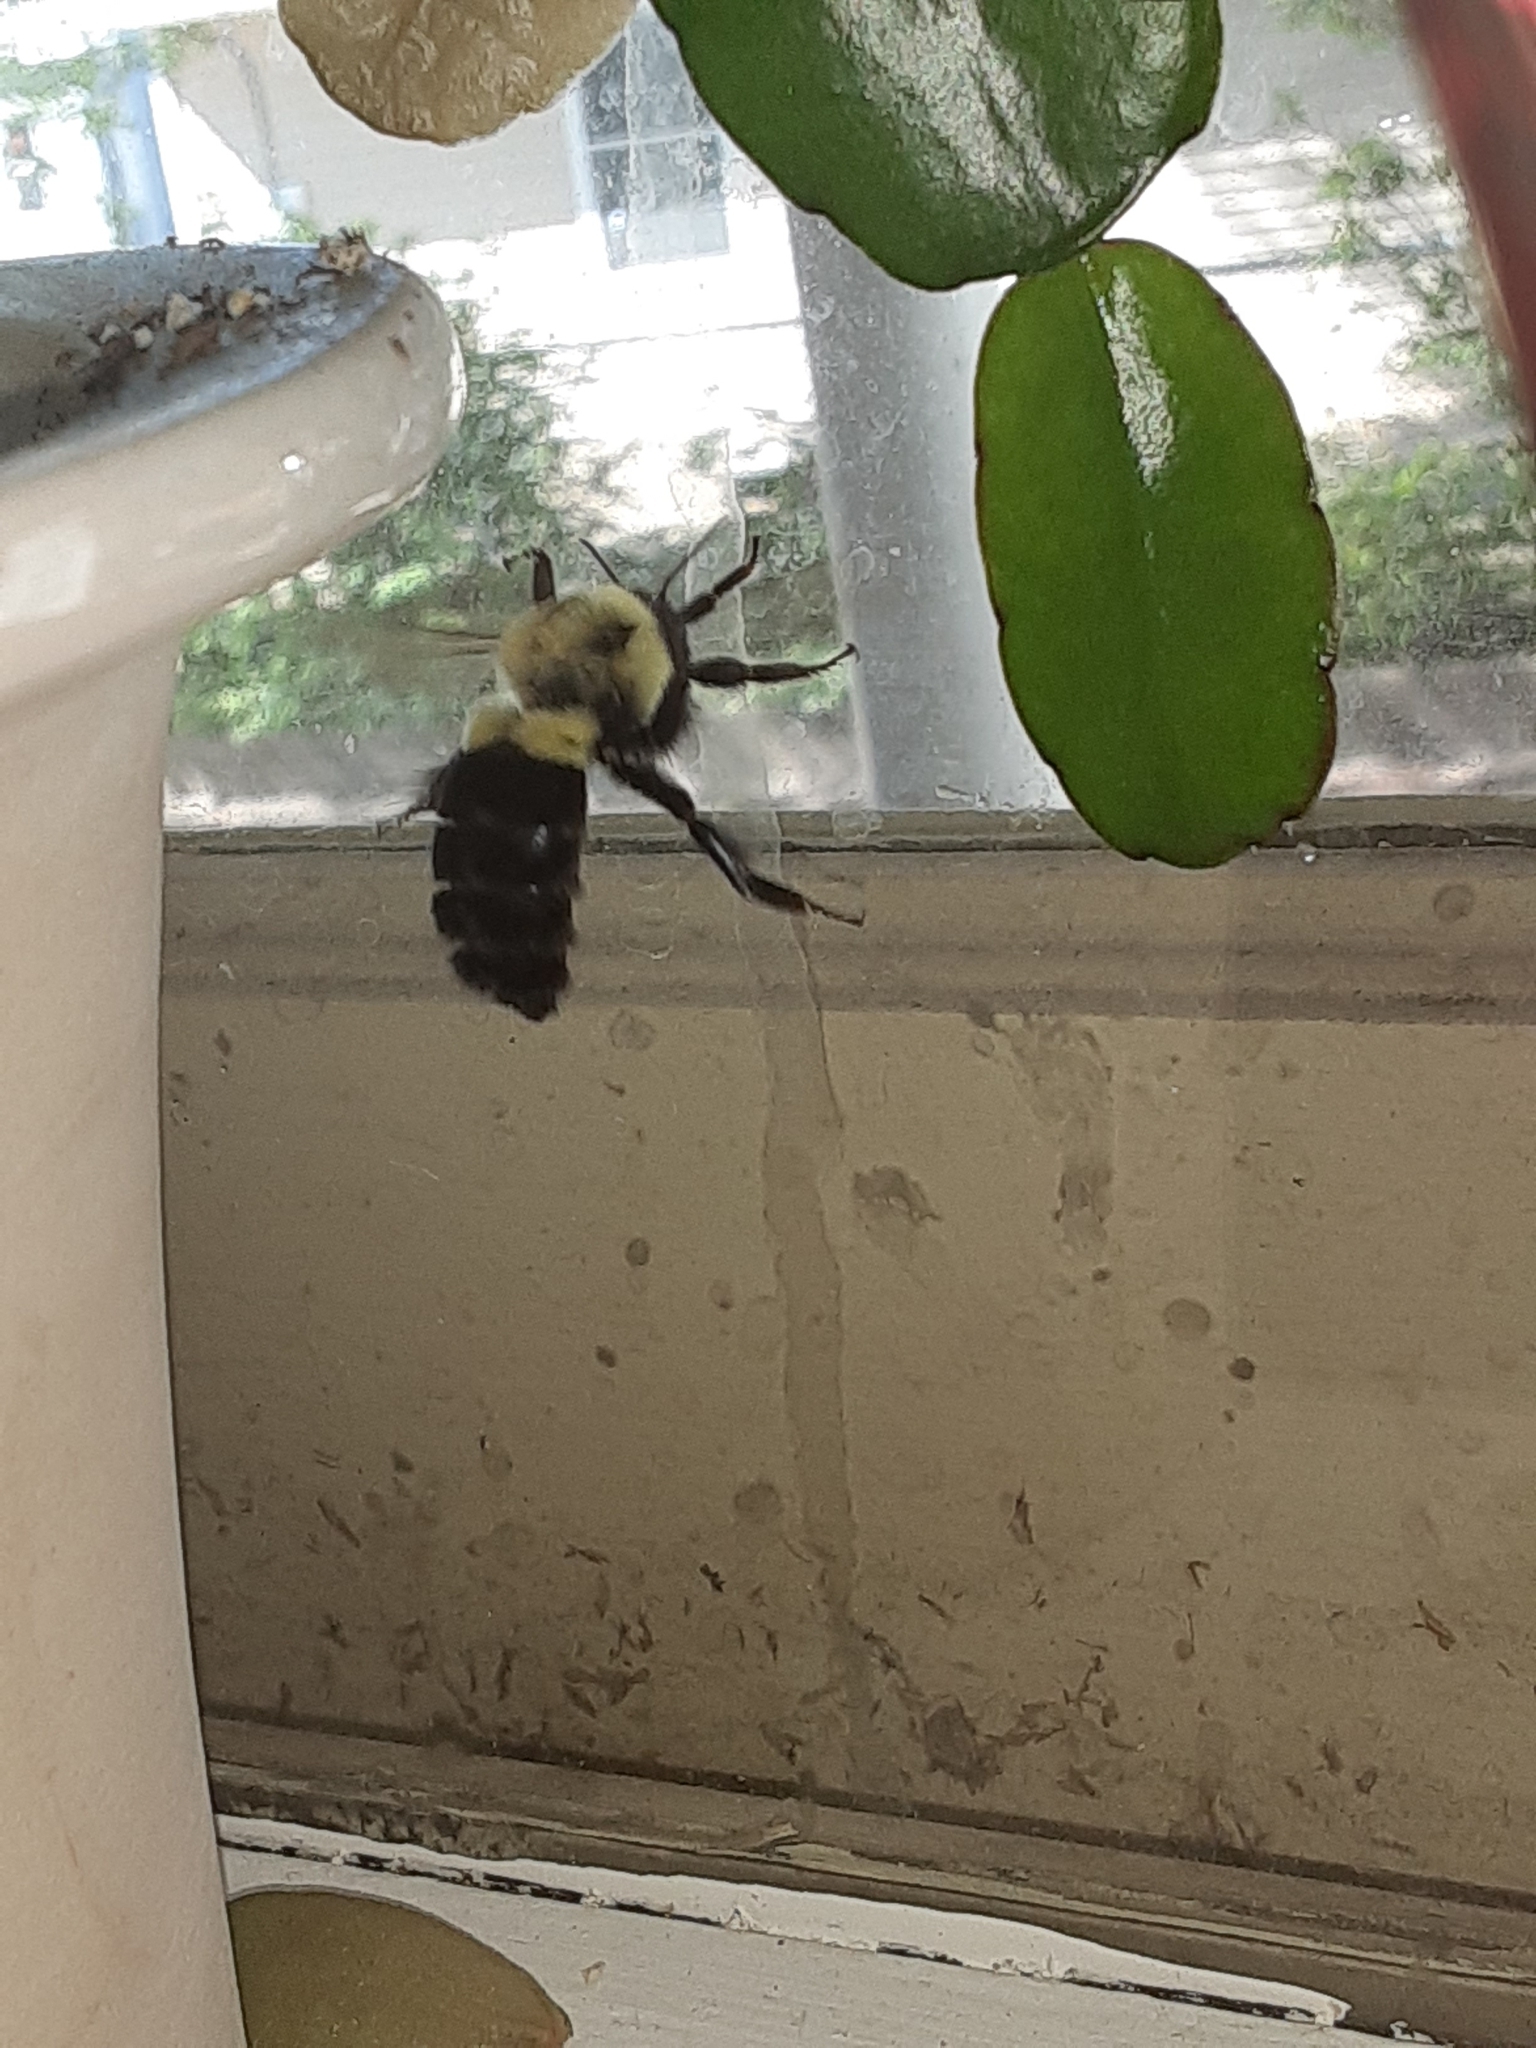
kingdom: Animalia
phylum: Arthropoda
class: Insecta
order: Hymenoptera
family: Apidae
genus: Bombus
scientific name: Bombus impatiens
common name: Common eastern bumble bee
